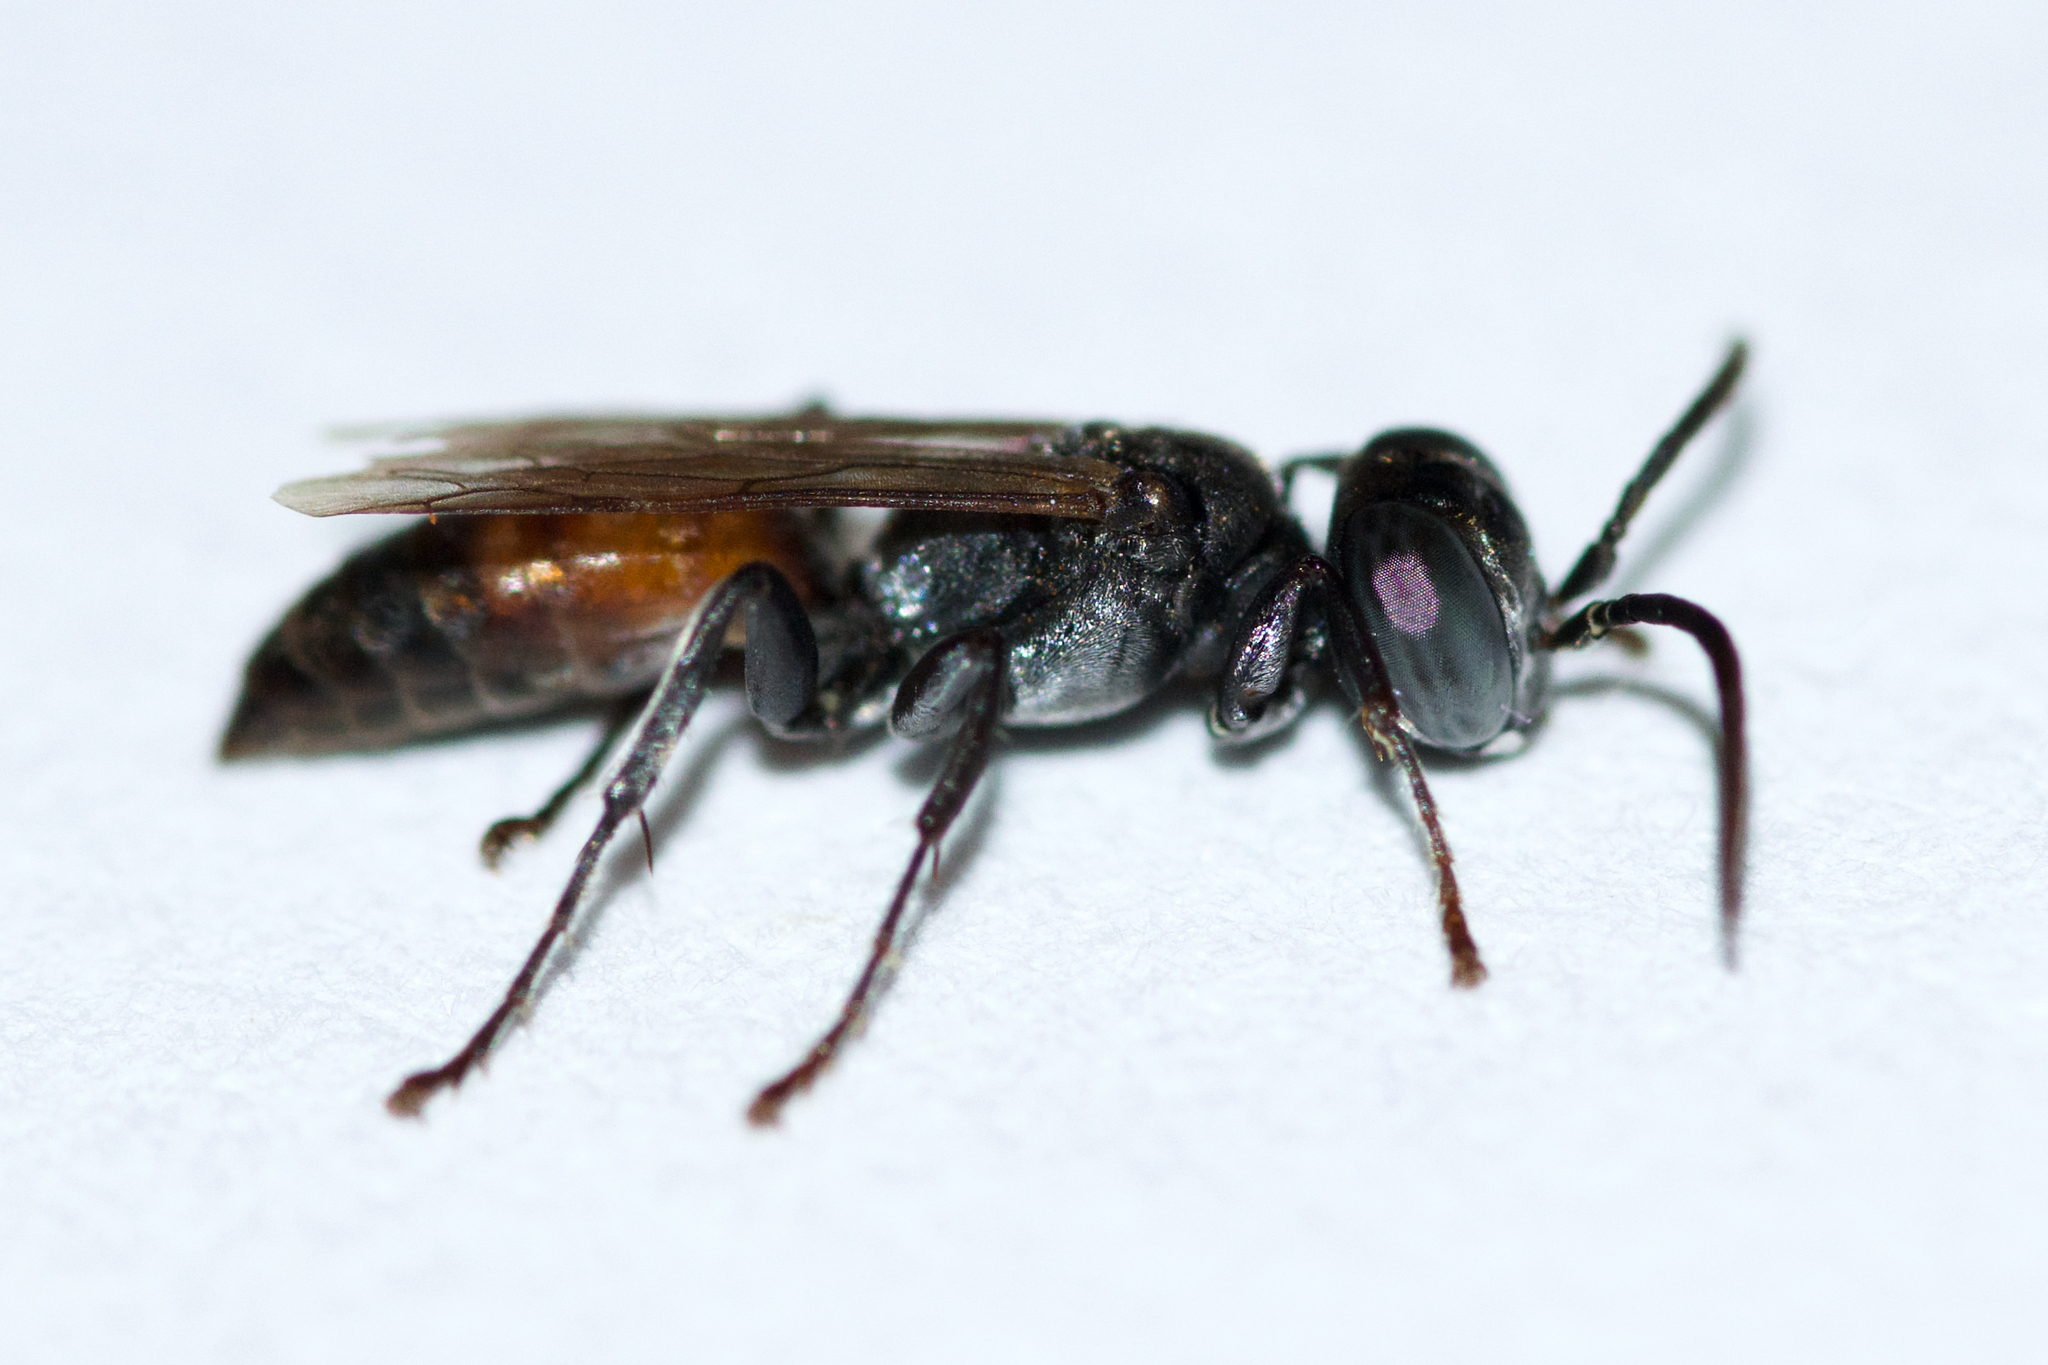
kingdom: Animalia
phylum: Arthropoda
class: Insecta
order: Hymenoptera
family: Crabronidae
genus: Tachysphex
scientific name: Tachysphex tarsatus
